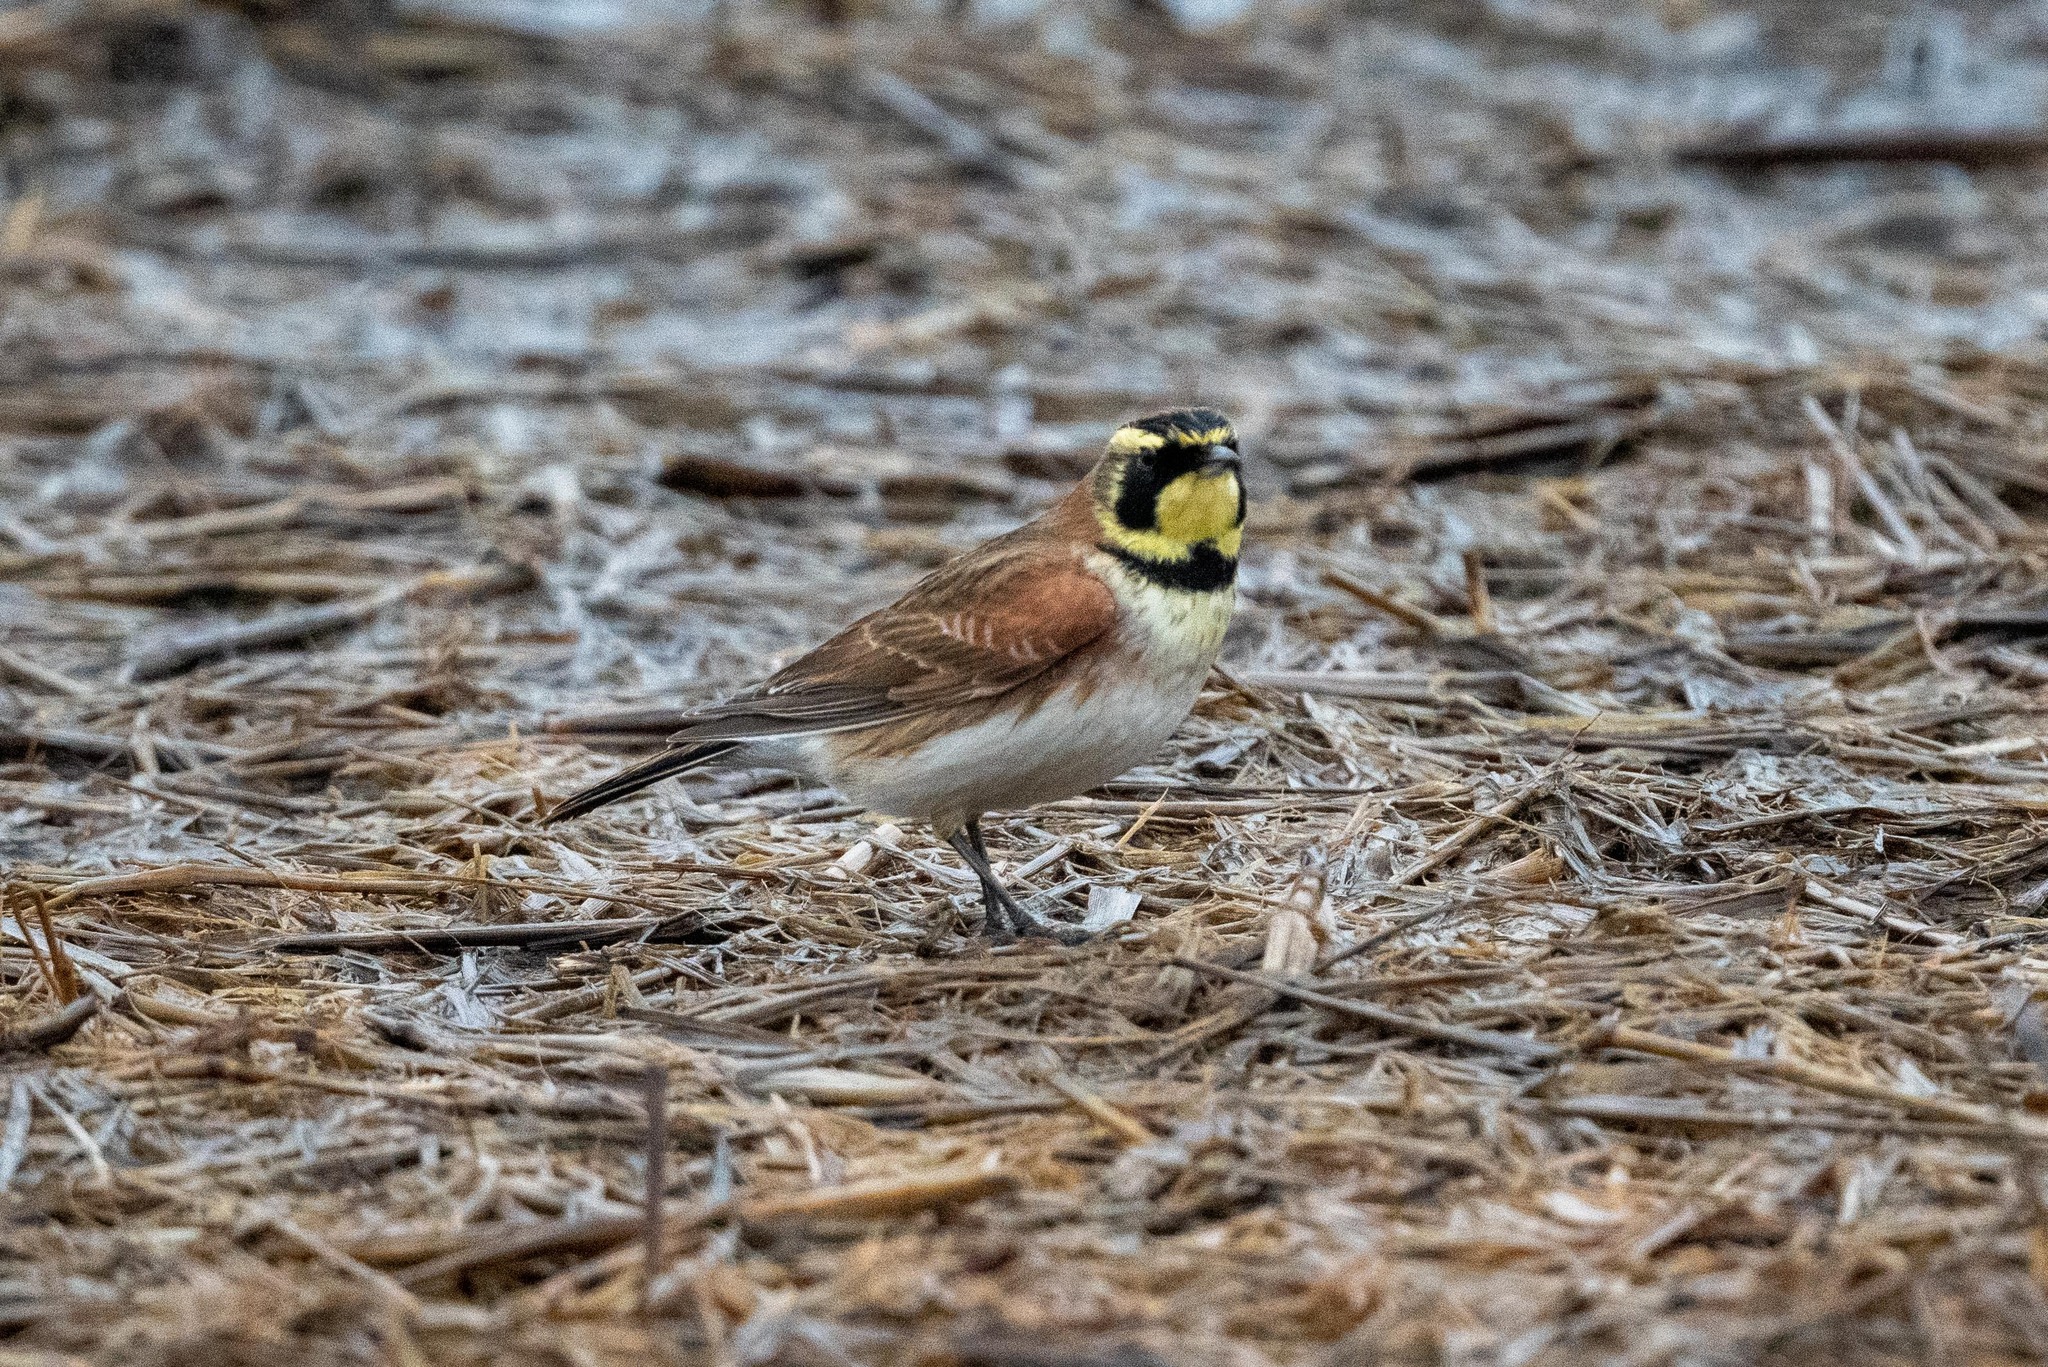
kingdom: Animalia
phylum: Chordata
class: Aves
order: Passeriformes
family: Alaudidae
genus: Eremophila
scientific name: Eremophila alpestris
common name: Horned lark
